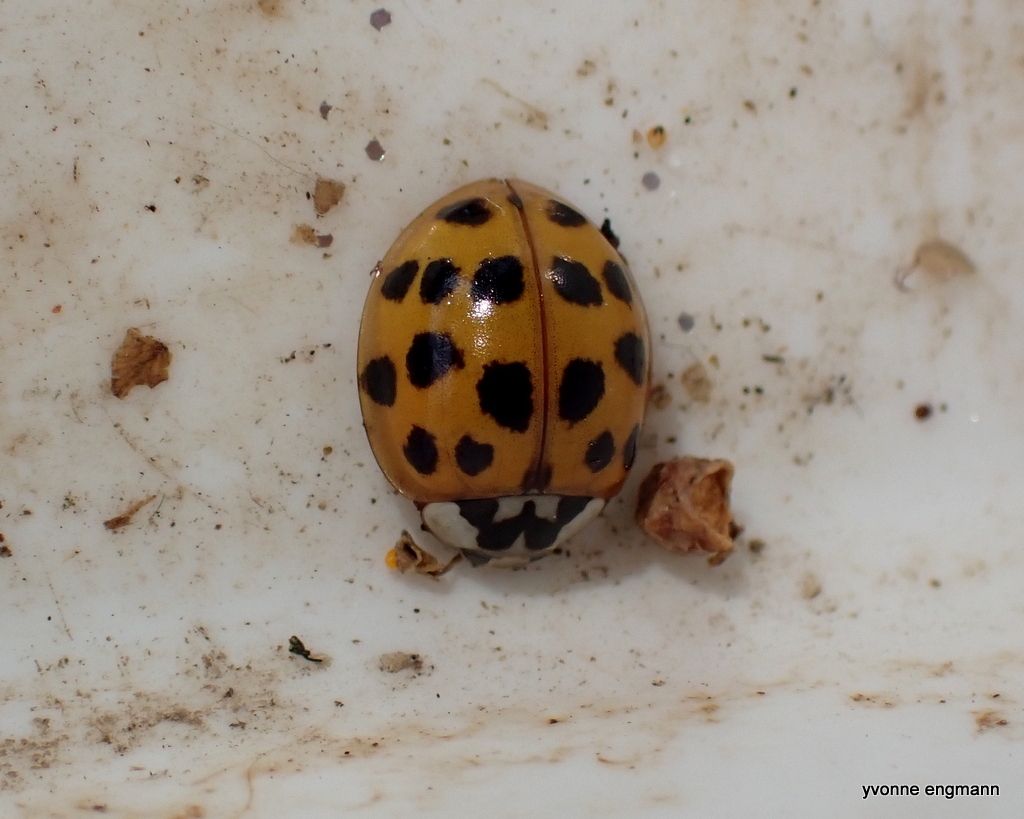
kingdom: Animalia
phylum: Arthropoda
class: Insecta
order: Coleoptera
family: Coccinellidae
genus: Harmonia
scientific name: Harmonia axyridis
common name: Harlequin ladybird
